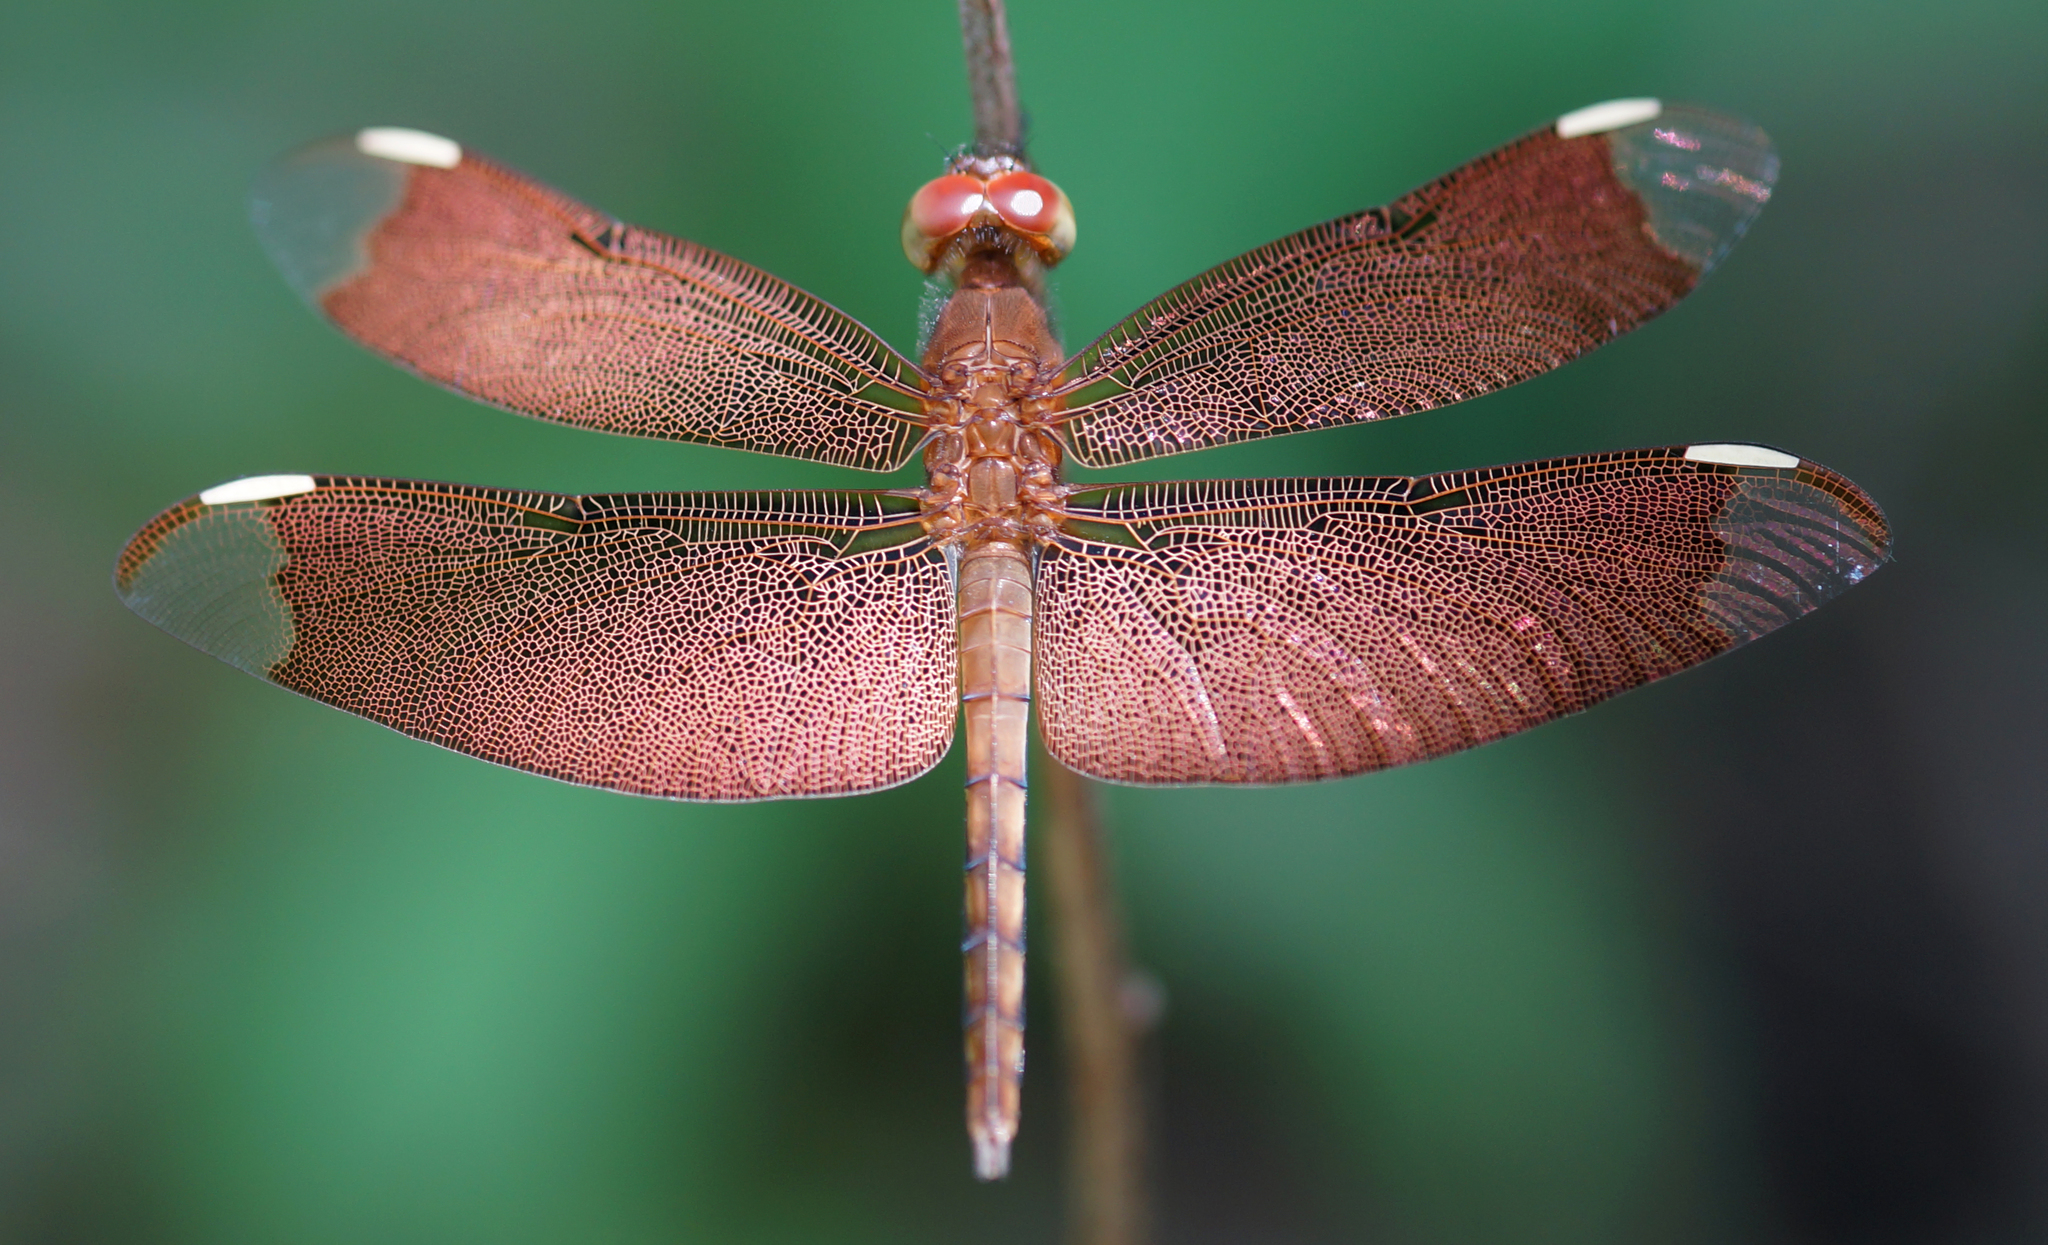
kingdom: Animalia
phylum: Arthropoda
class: Insecta
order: Odonata
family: Libellulidae
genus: Neurothemis
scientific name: Neurothemis fulvia
